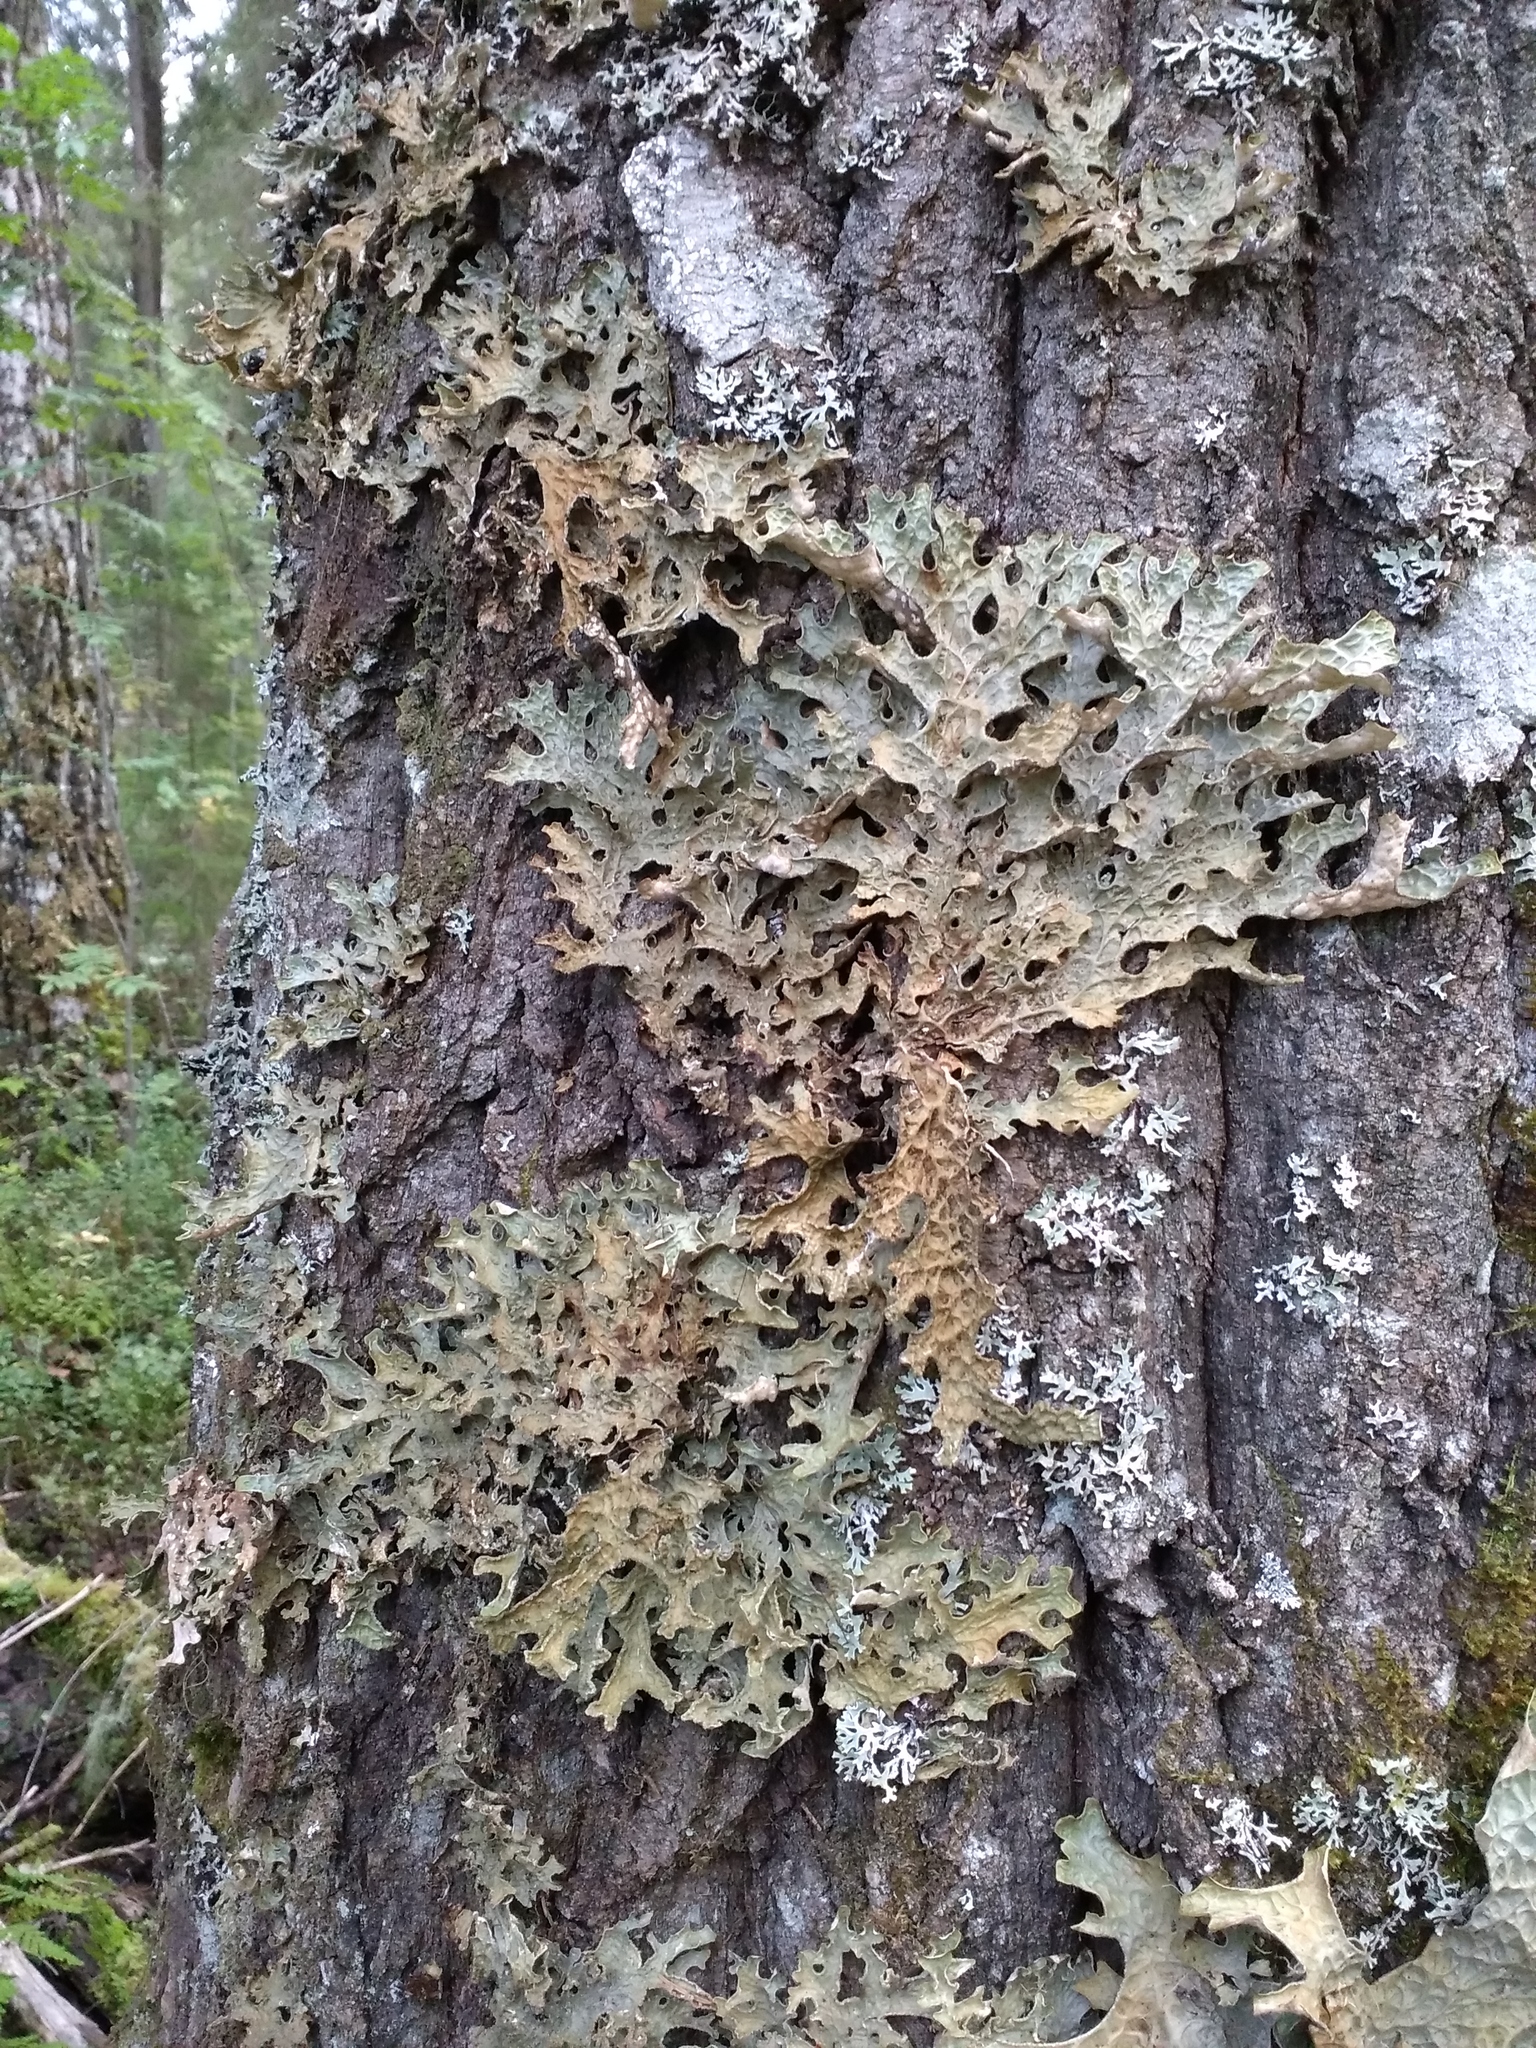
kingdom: Fungi
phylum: Ascomycota
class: Lecanoromycetes
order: Peltigerales
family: Lobariaceae
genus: Lobaria
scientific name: Lobaria pulmonaria
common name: Lungwort
